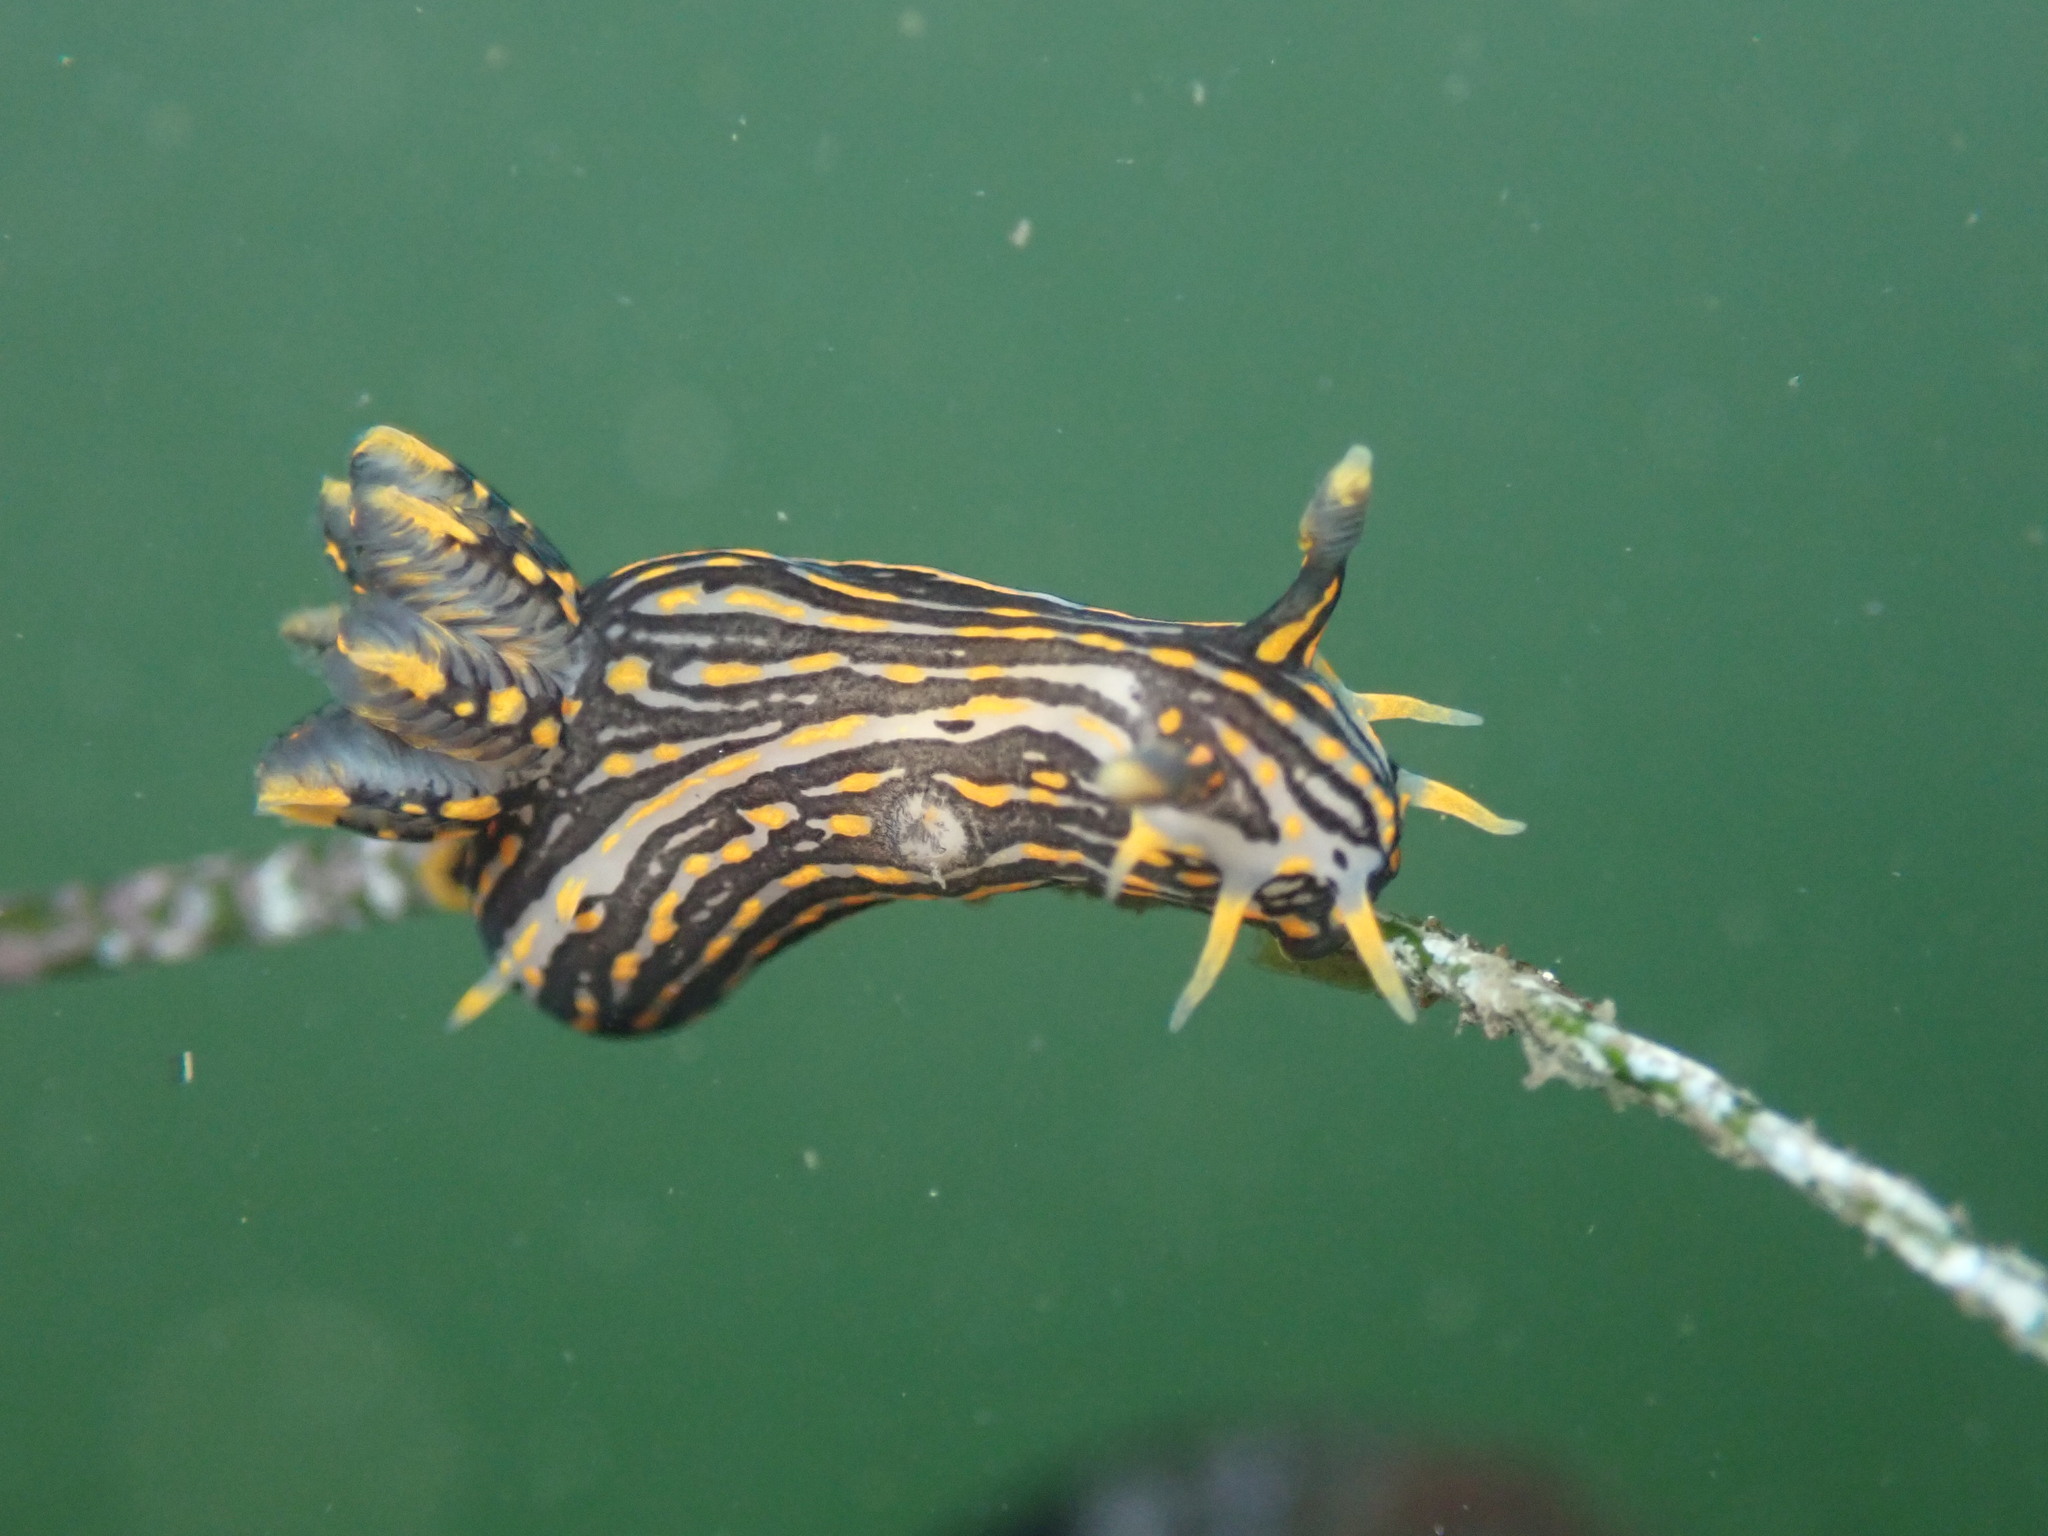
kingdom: Animalia
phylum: Mollusca
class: Gastropoda
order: Nudibranchia
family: Polyceridae
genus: Polycera
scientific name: Polycera atra
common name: Orange-spike polycera
